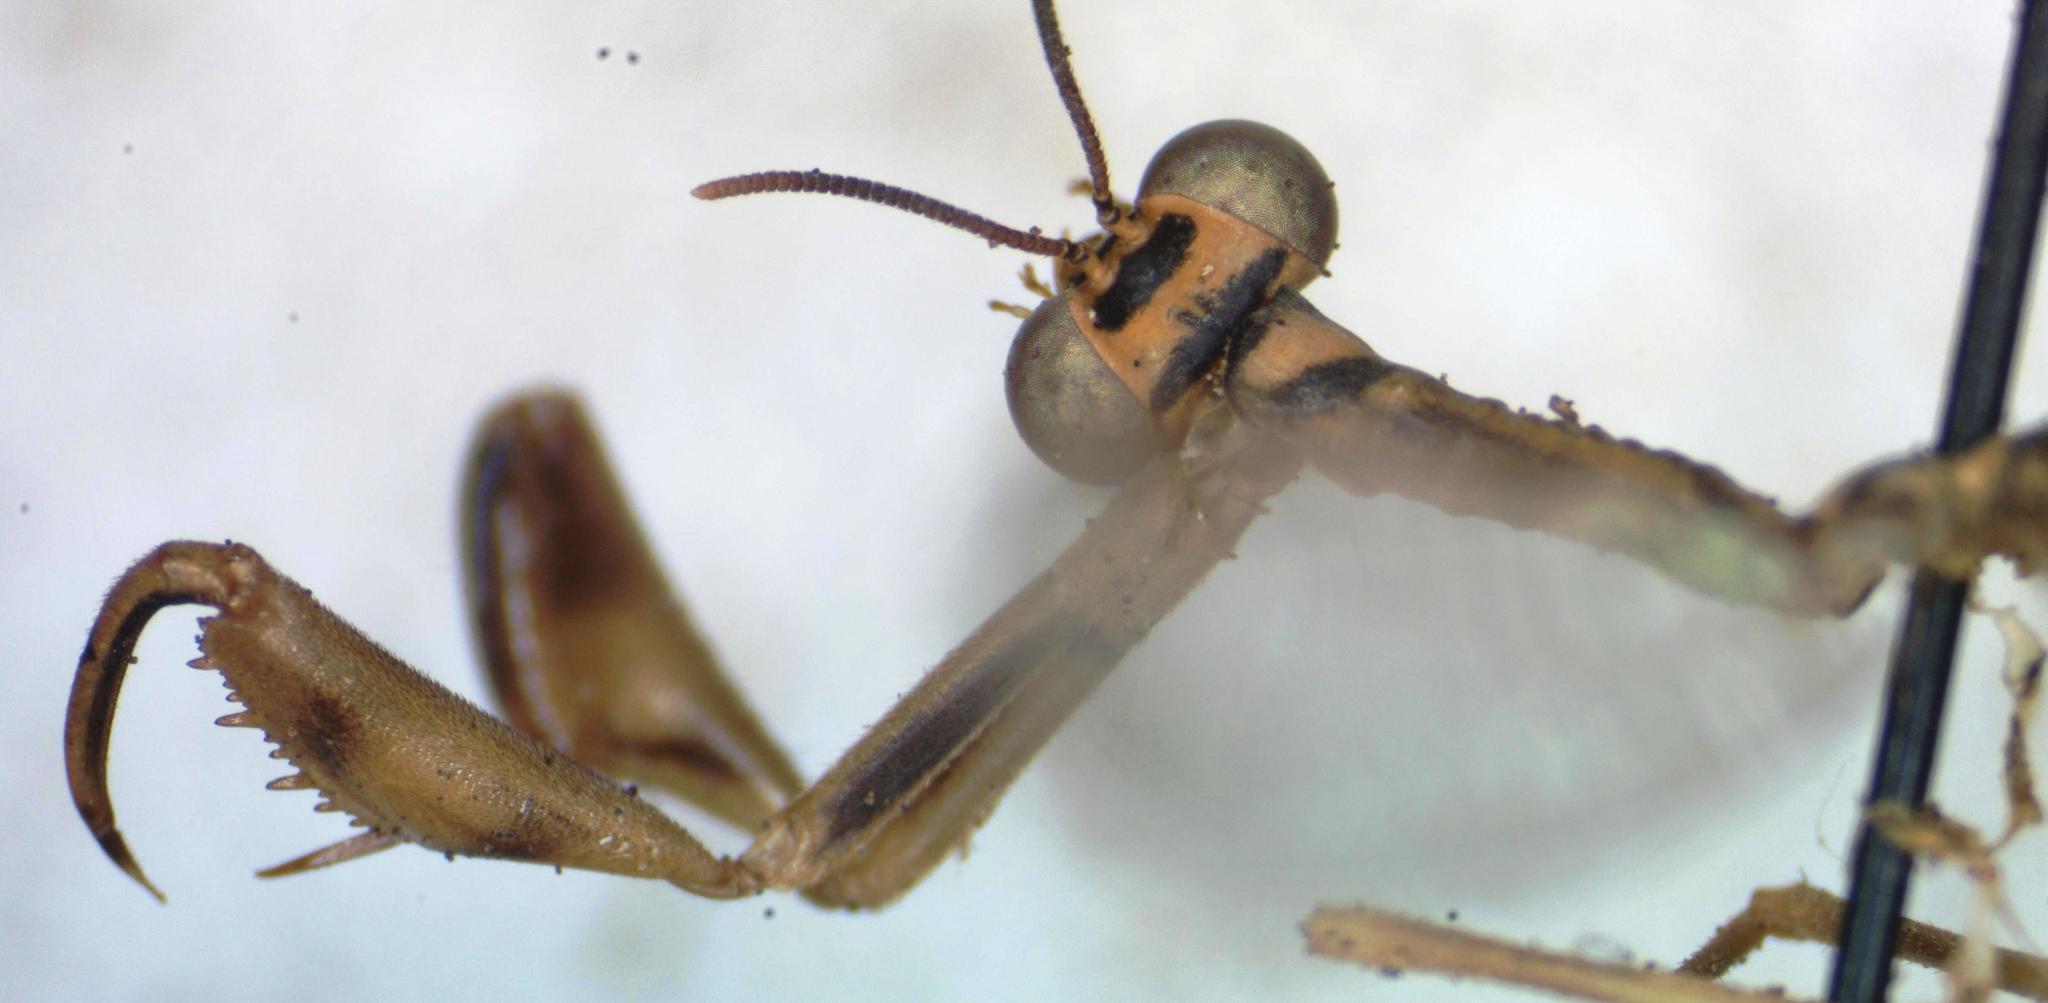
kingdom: Animalia
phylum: Arthropoda
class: Insecta
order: Neuroptera
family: Mantispidae
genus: Entanoneura
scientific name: Entanoneura batesella
